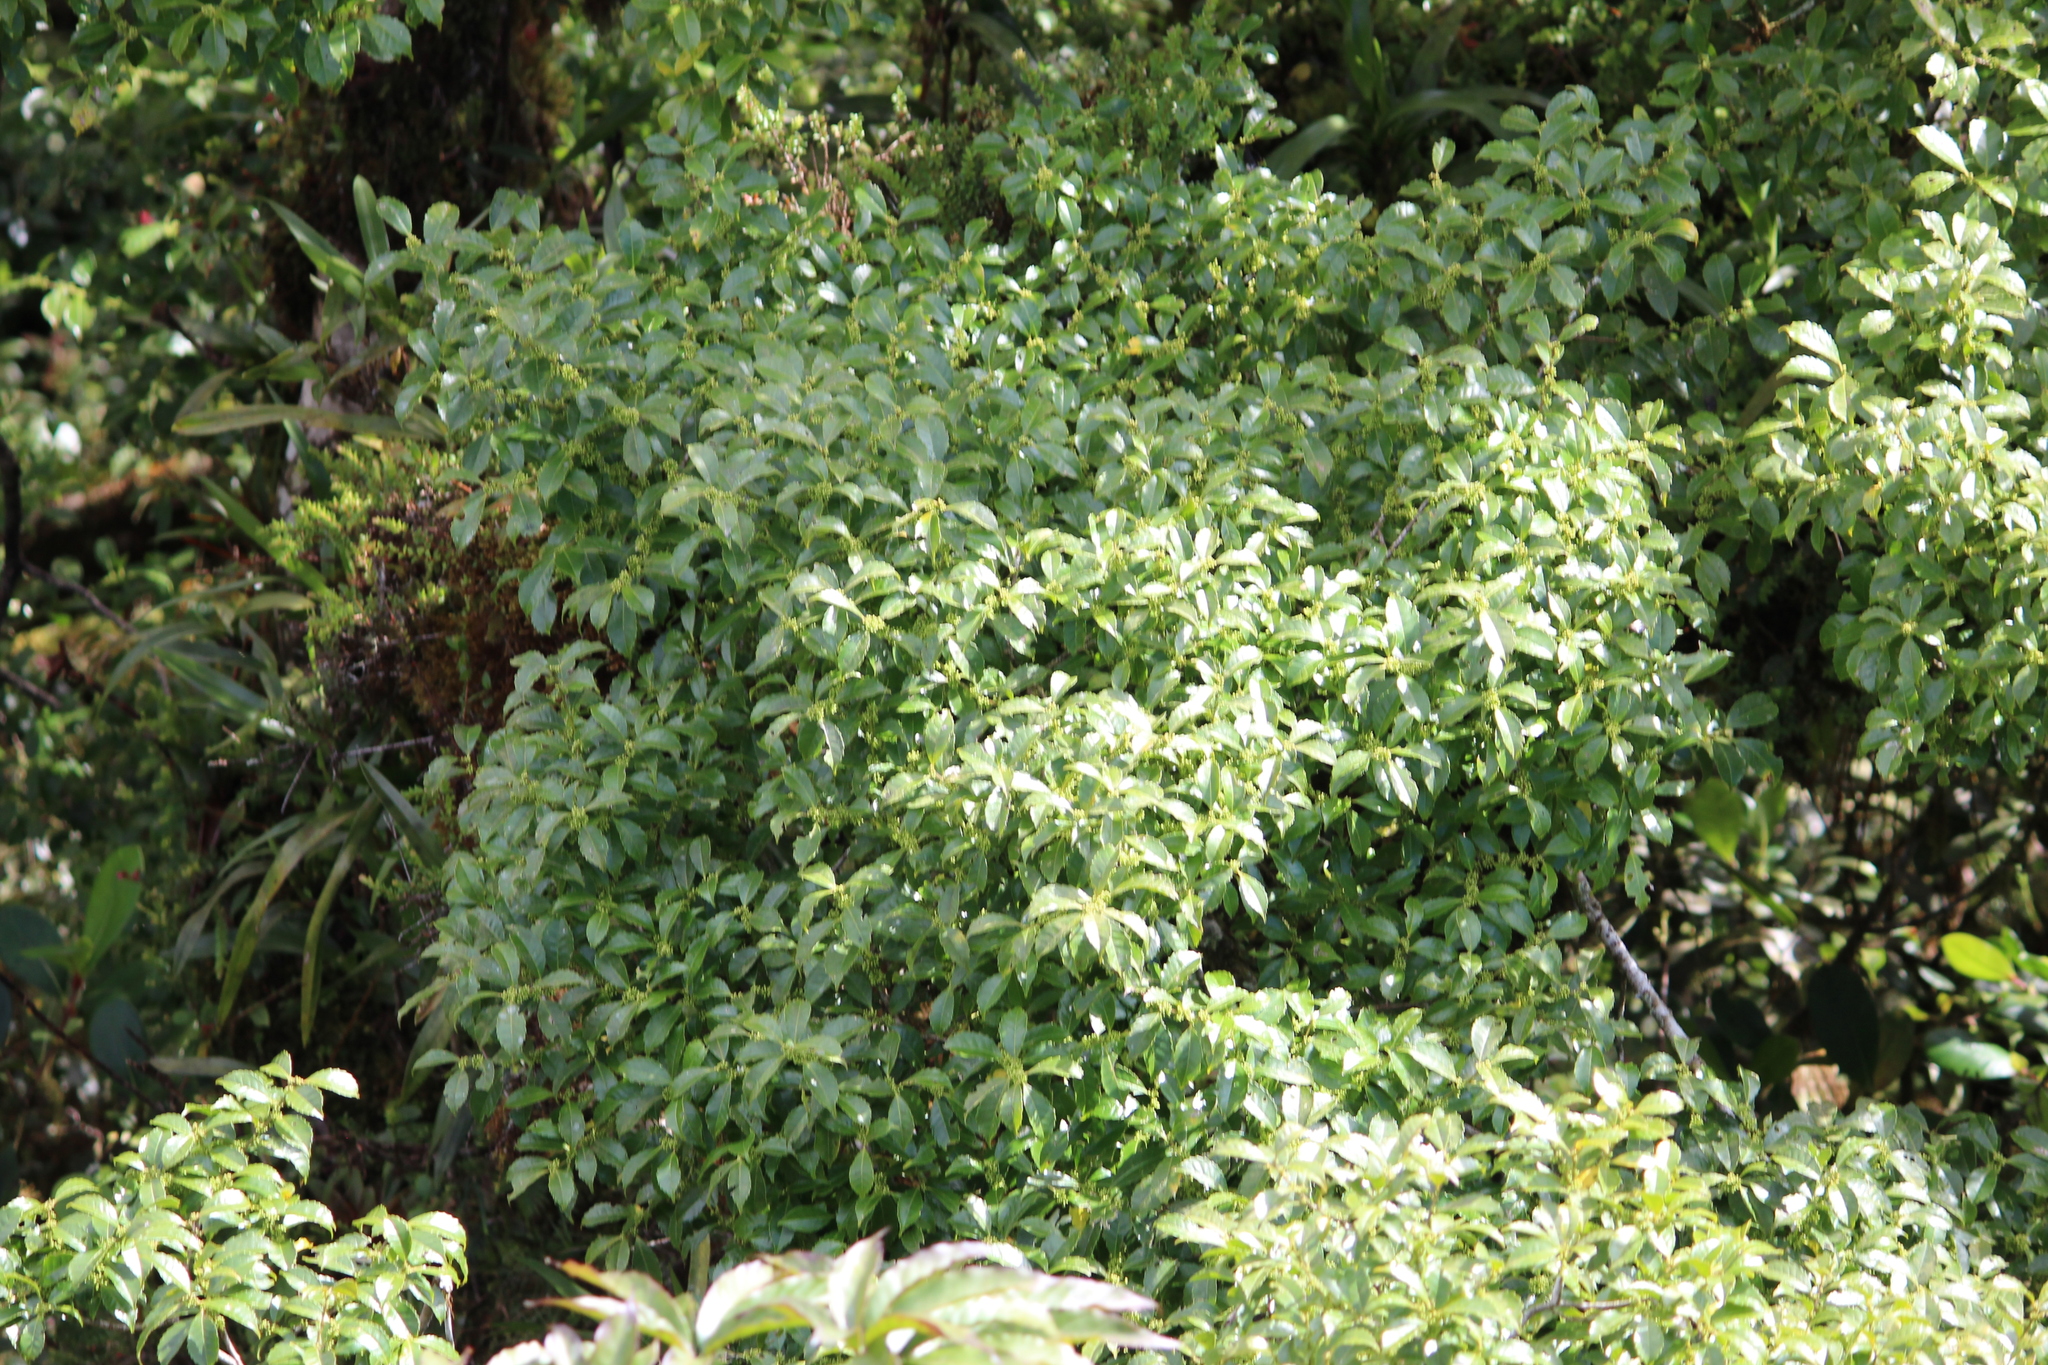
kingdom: Plantae
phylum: Tracheophyta
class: Magnoliopsida
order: Aquifoliales
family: Aquifoliaceae
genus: Ilex
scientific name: Ilex lamprophylla
